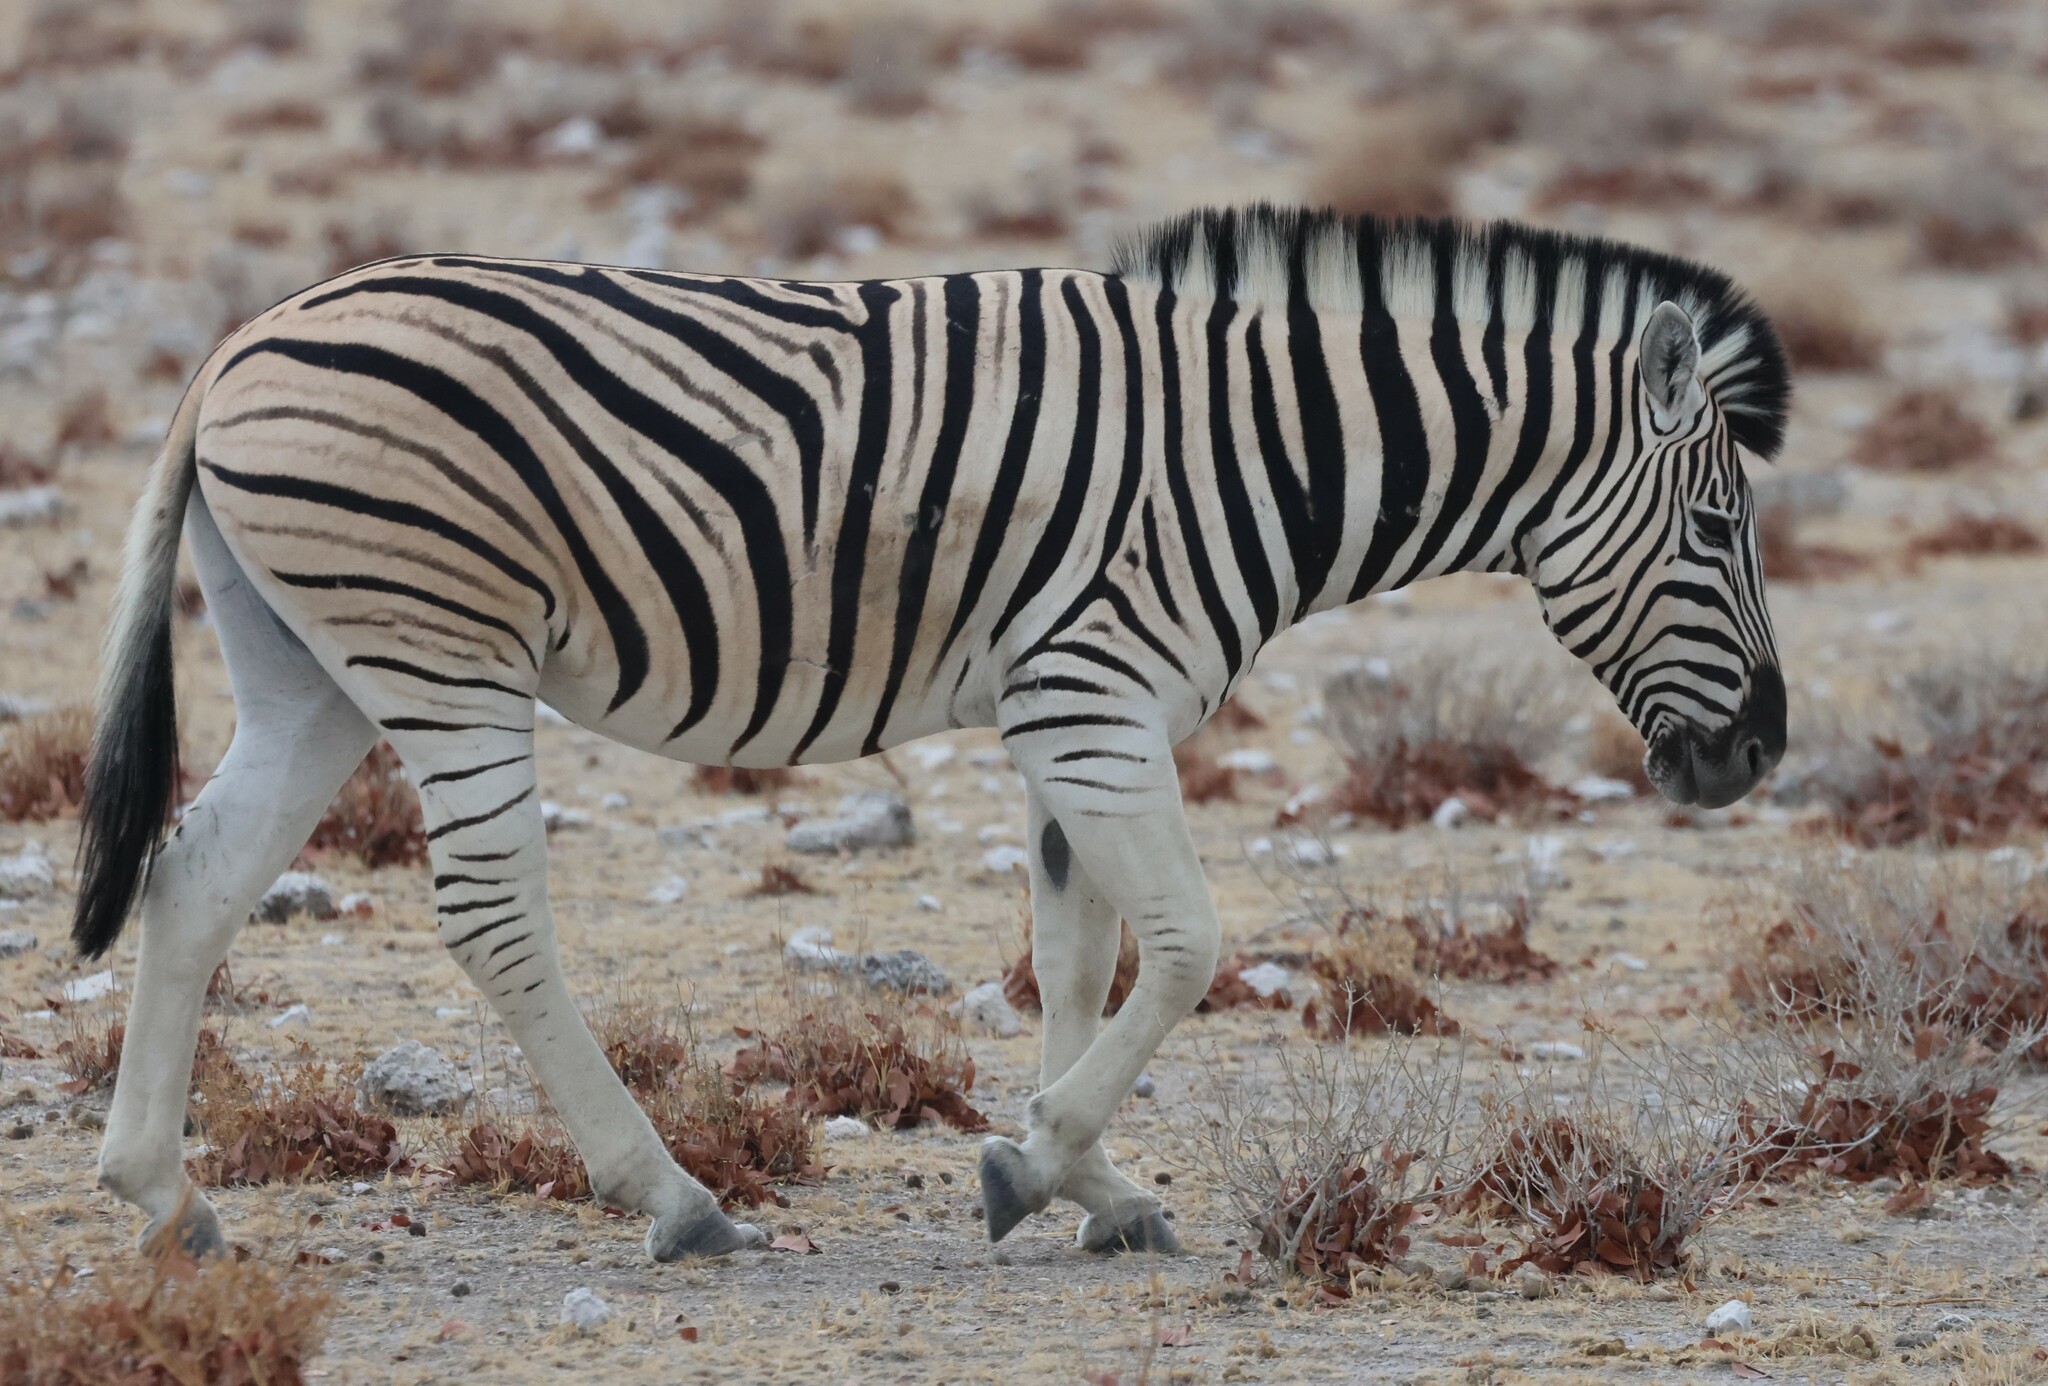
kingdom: Animalia
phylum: Chordata
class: Mammalia
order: Perissodactyla
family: Equidae
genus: Equus
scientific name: Equus quagga
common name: Plains zebra
